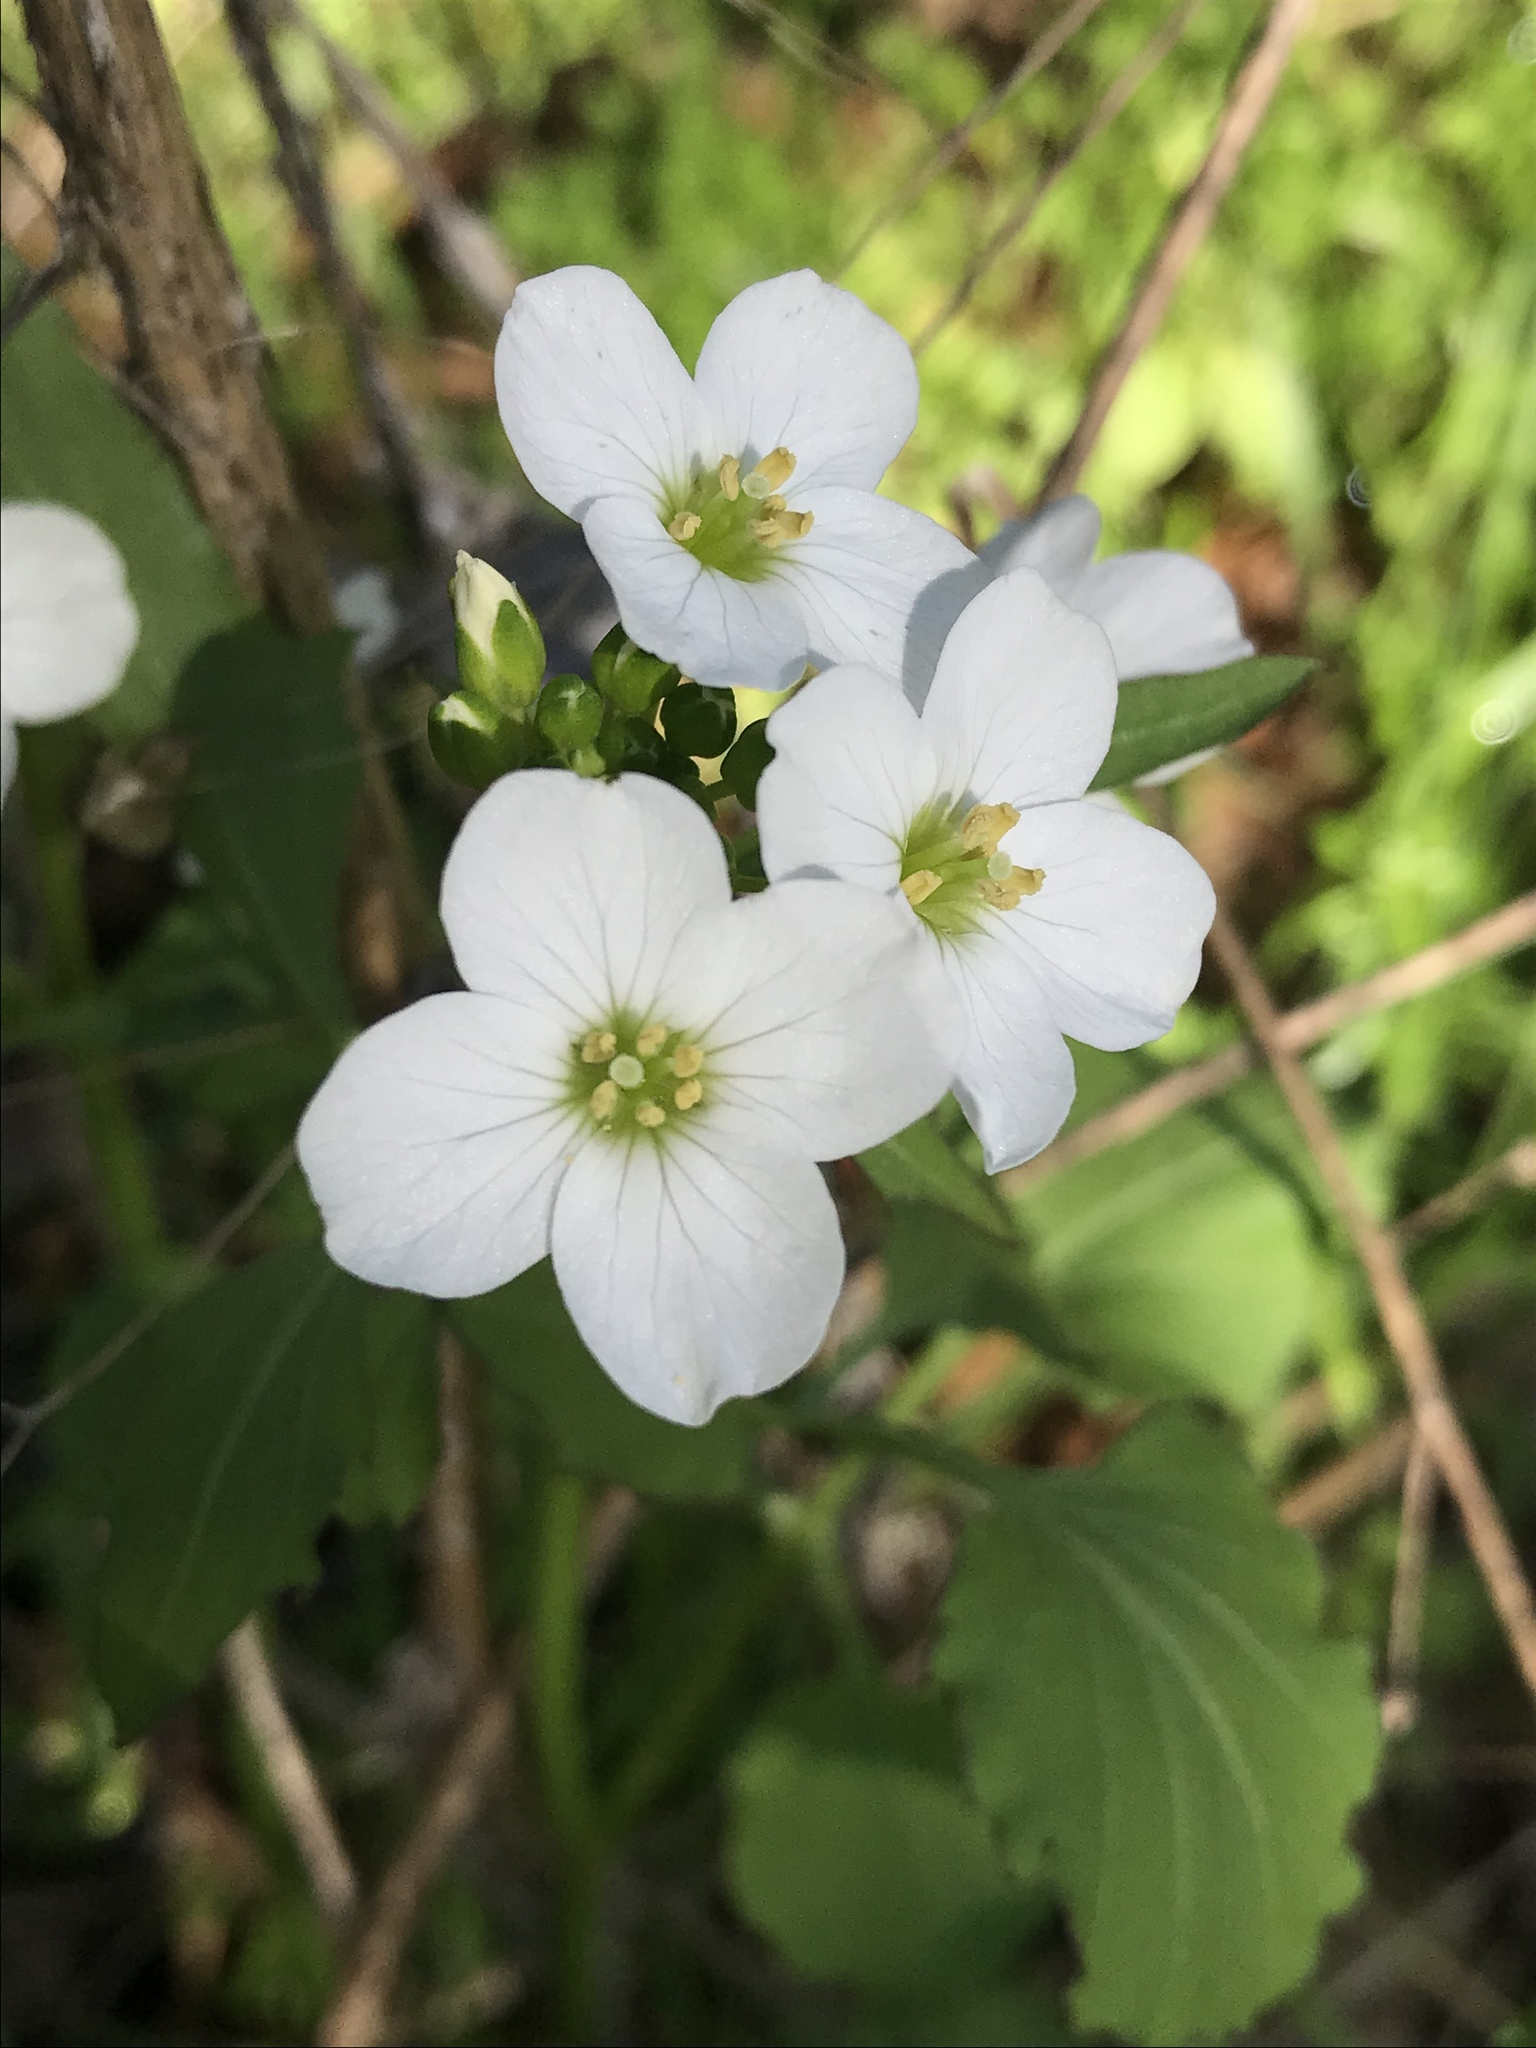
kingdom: Plantae
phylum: Tracheophyta
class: Magnoliopsida
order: Brassicales
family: Brassicaceae
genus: Cardamine
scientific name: Cardamine californica
